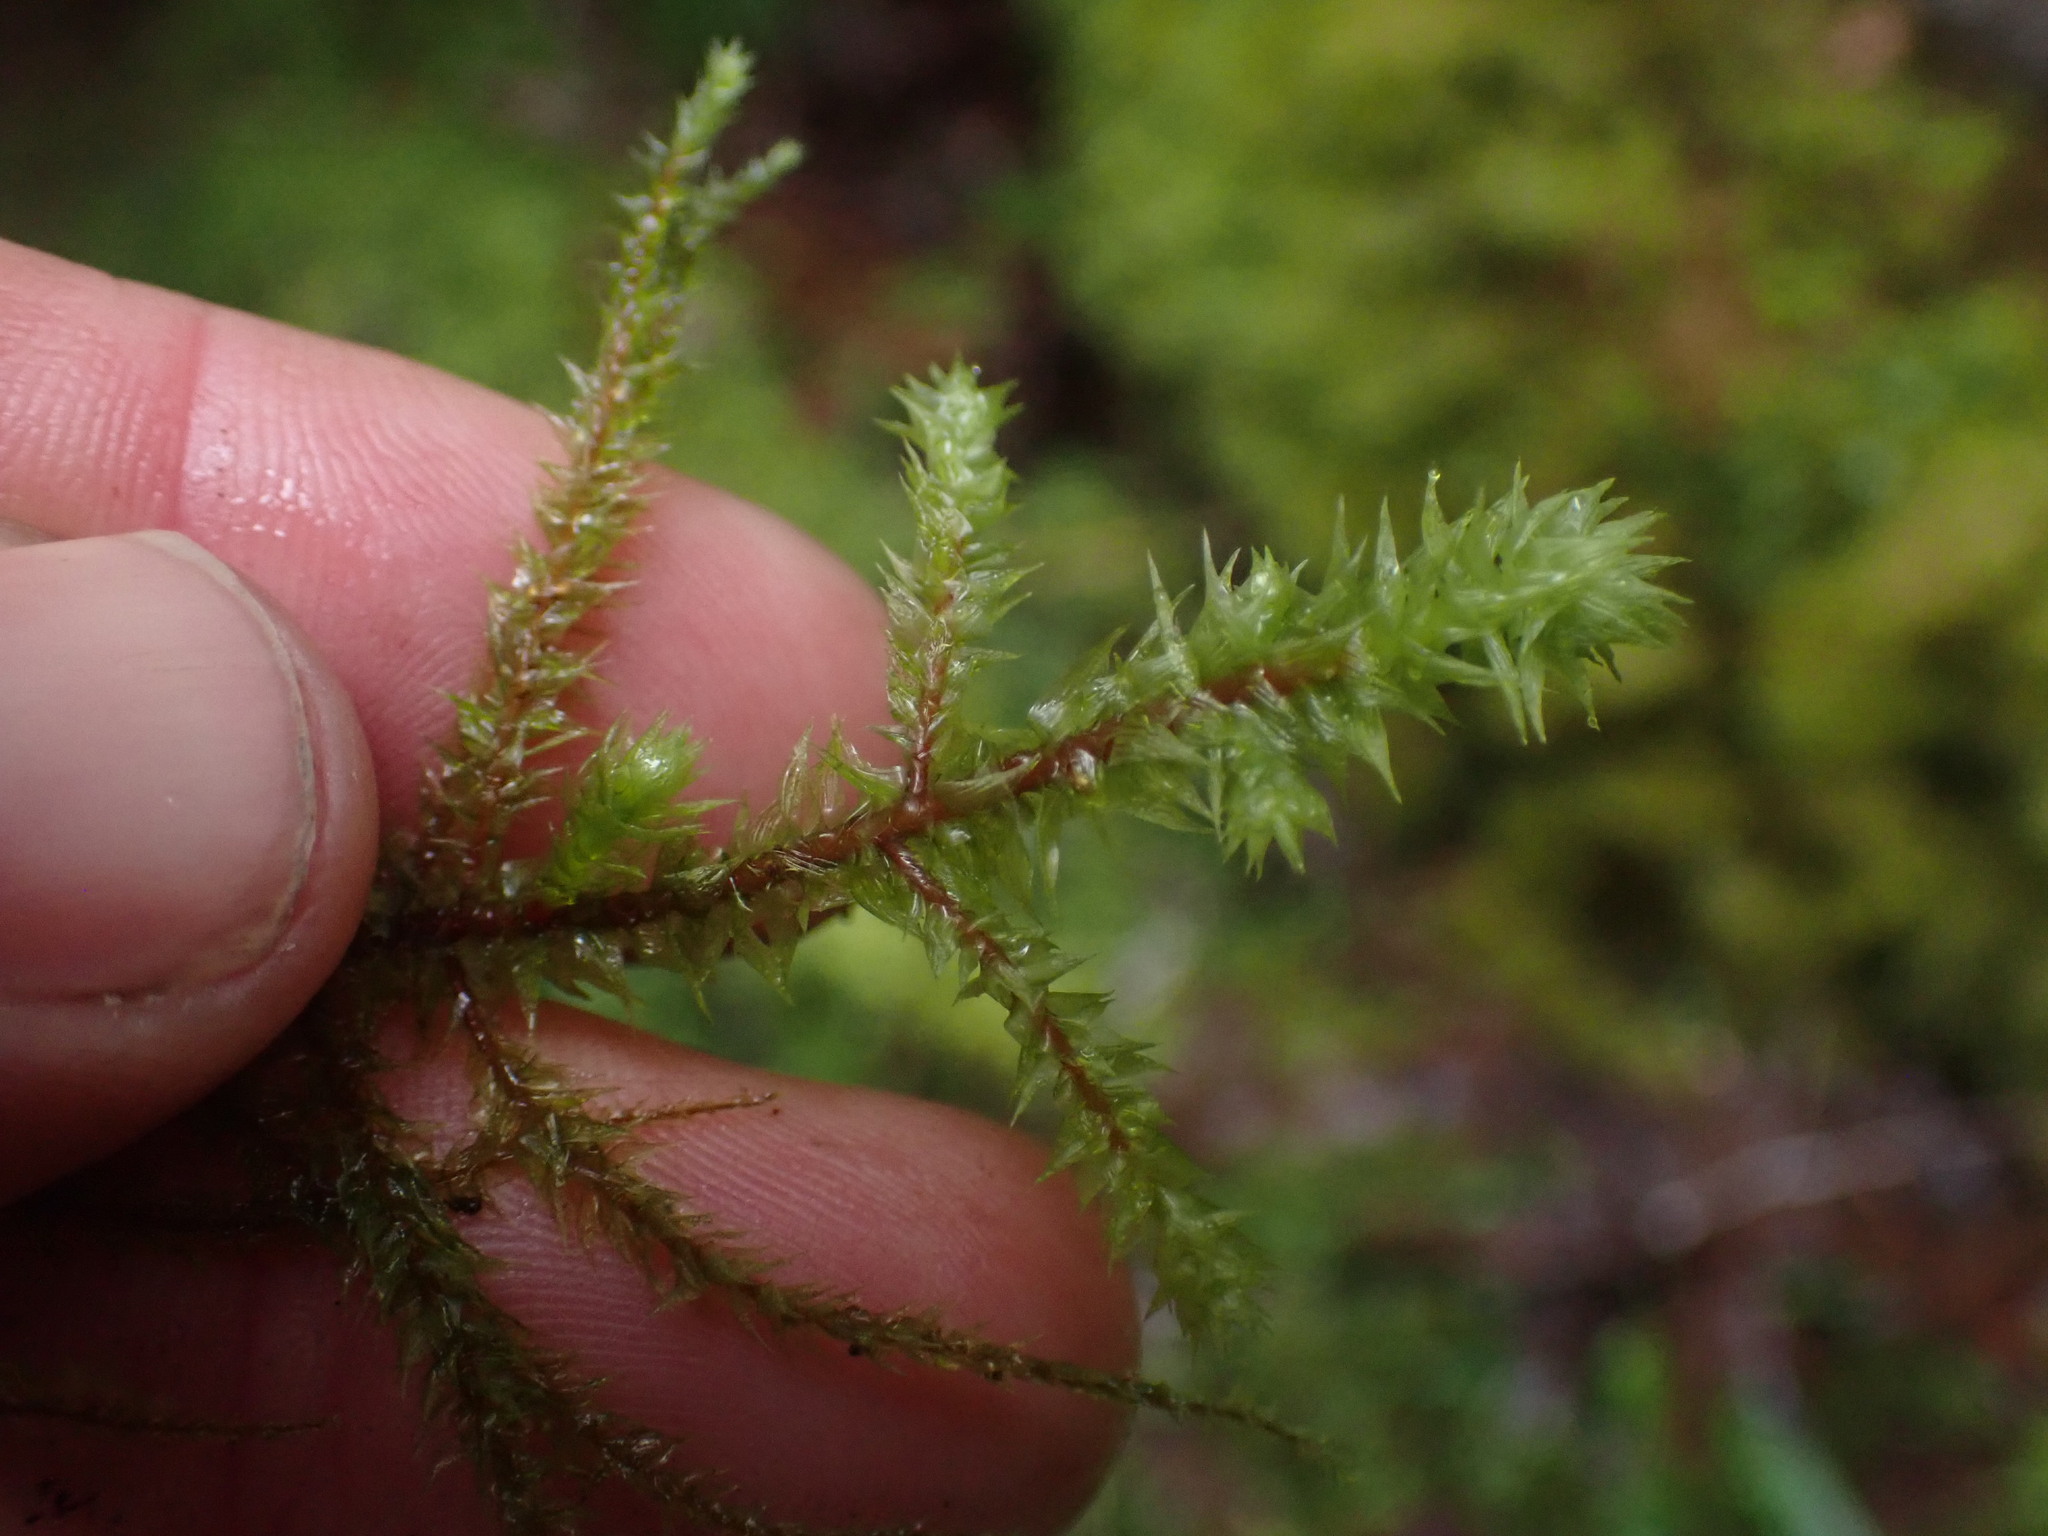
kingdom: Plantae
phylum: Bryophyta
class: Bryopsida
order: Hypnales
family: Hylocomiaceae
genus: Hylocomiadelphus
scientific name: Hylocomiadelphus triquetrus
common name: Rough goose neck moss
